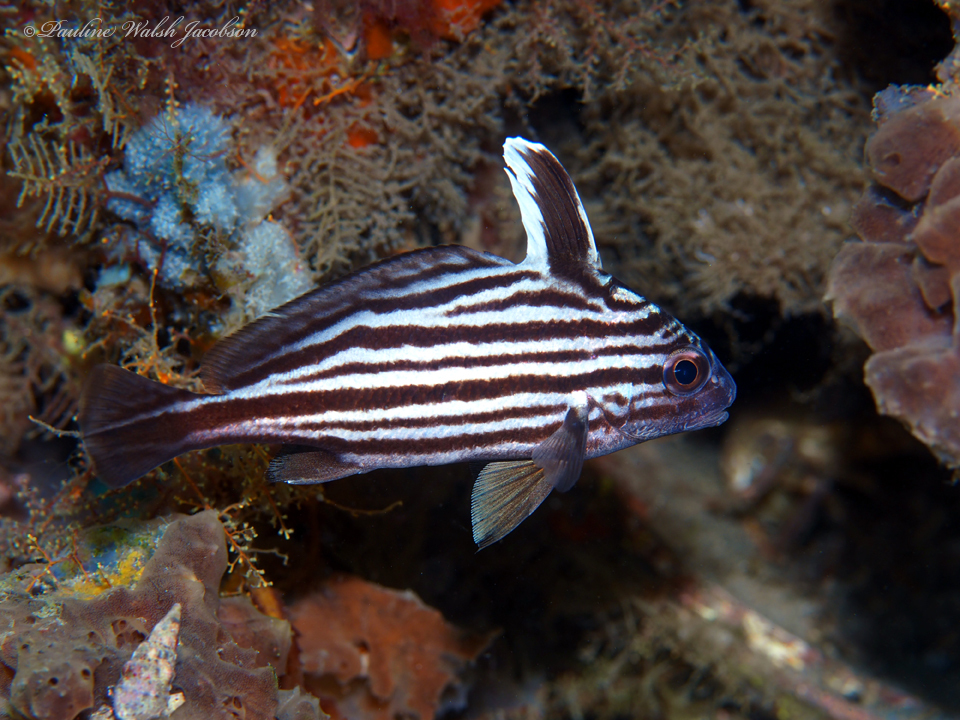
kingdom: Animalia
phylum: Chordata
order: Perciformes
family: Sciaenidae
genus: Pareques
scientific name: Pareques acuminatus
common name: High-hat
